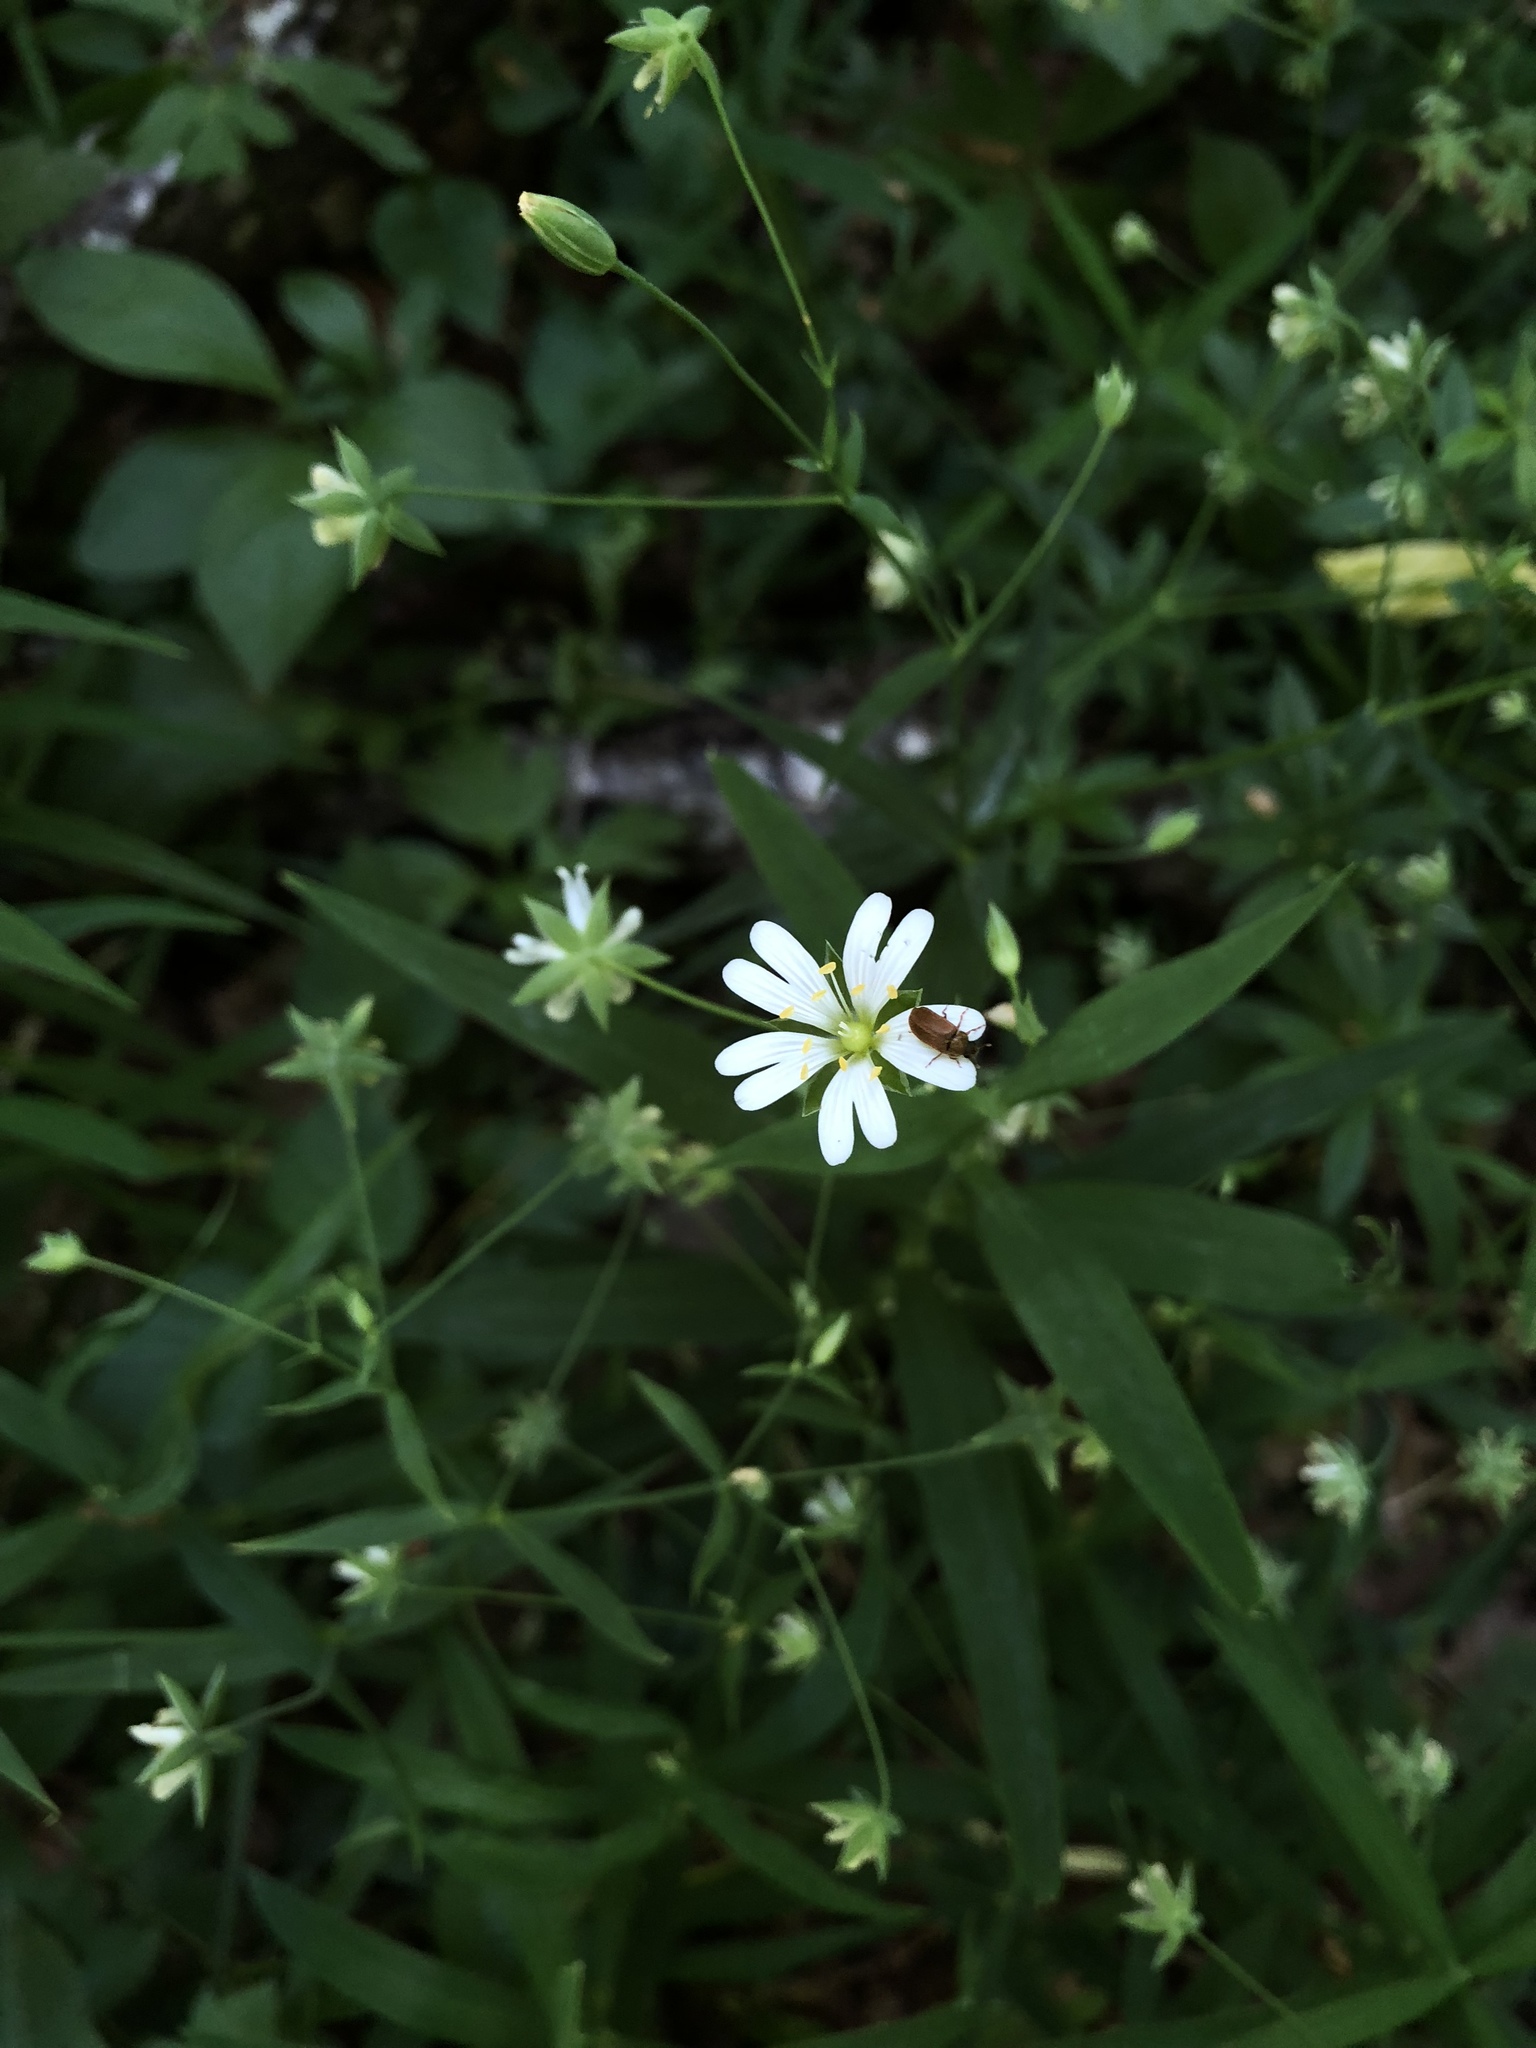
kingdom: Plantae
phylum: Tracheophyta
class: Magnoliopsida
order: Caryophyllales
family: Caryophyllaceae
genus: Rabelera
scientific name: Rabelera holostea
